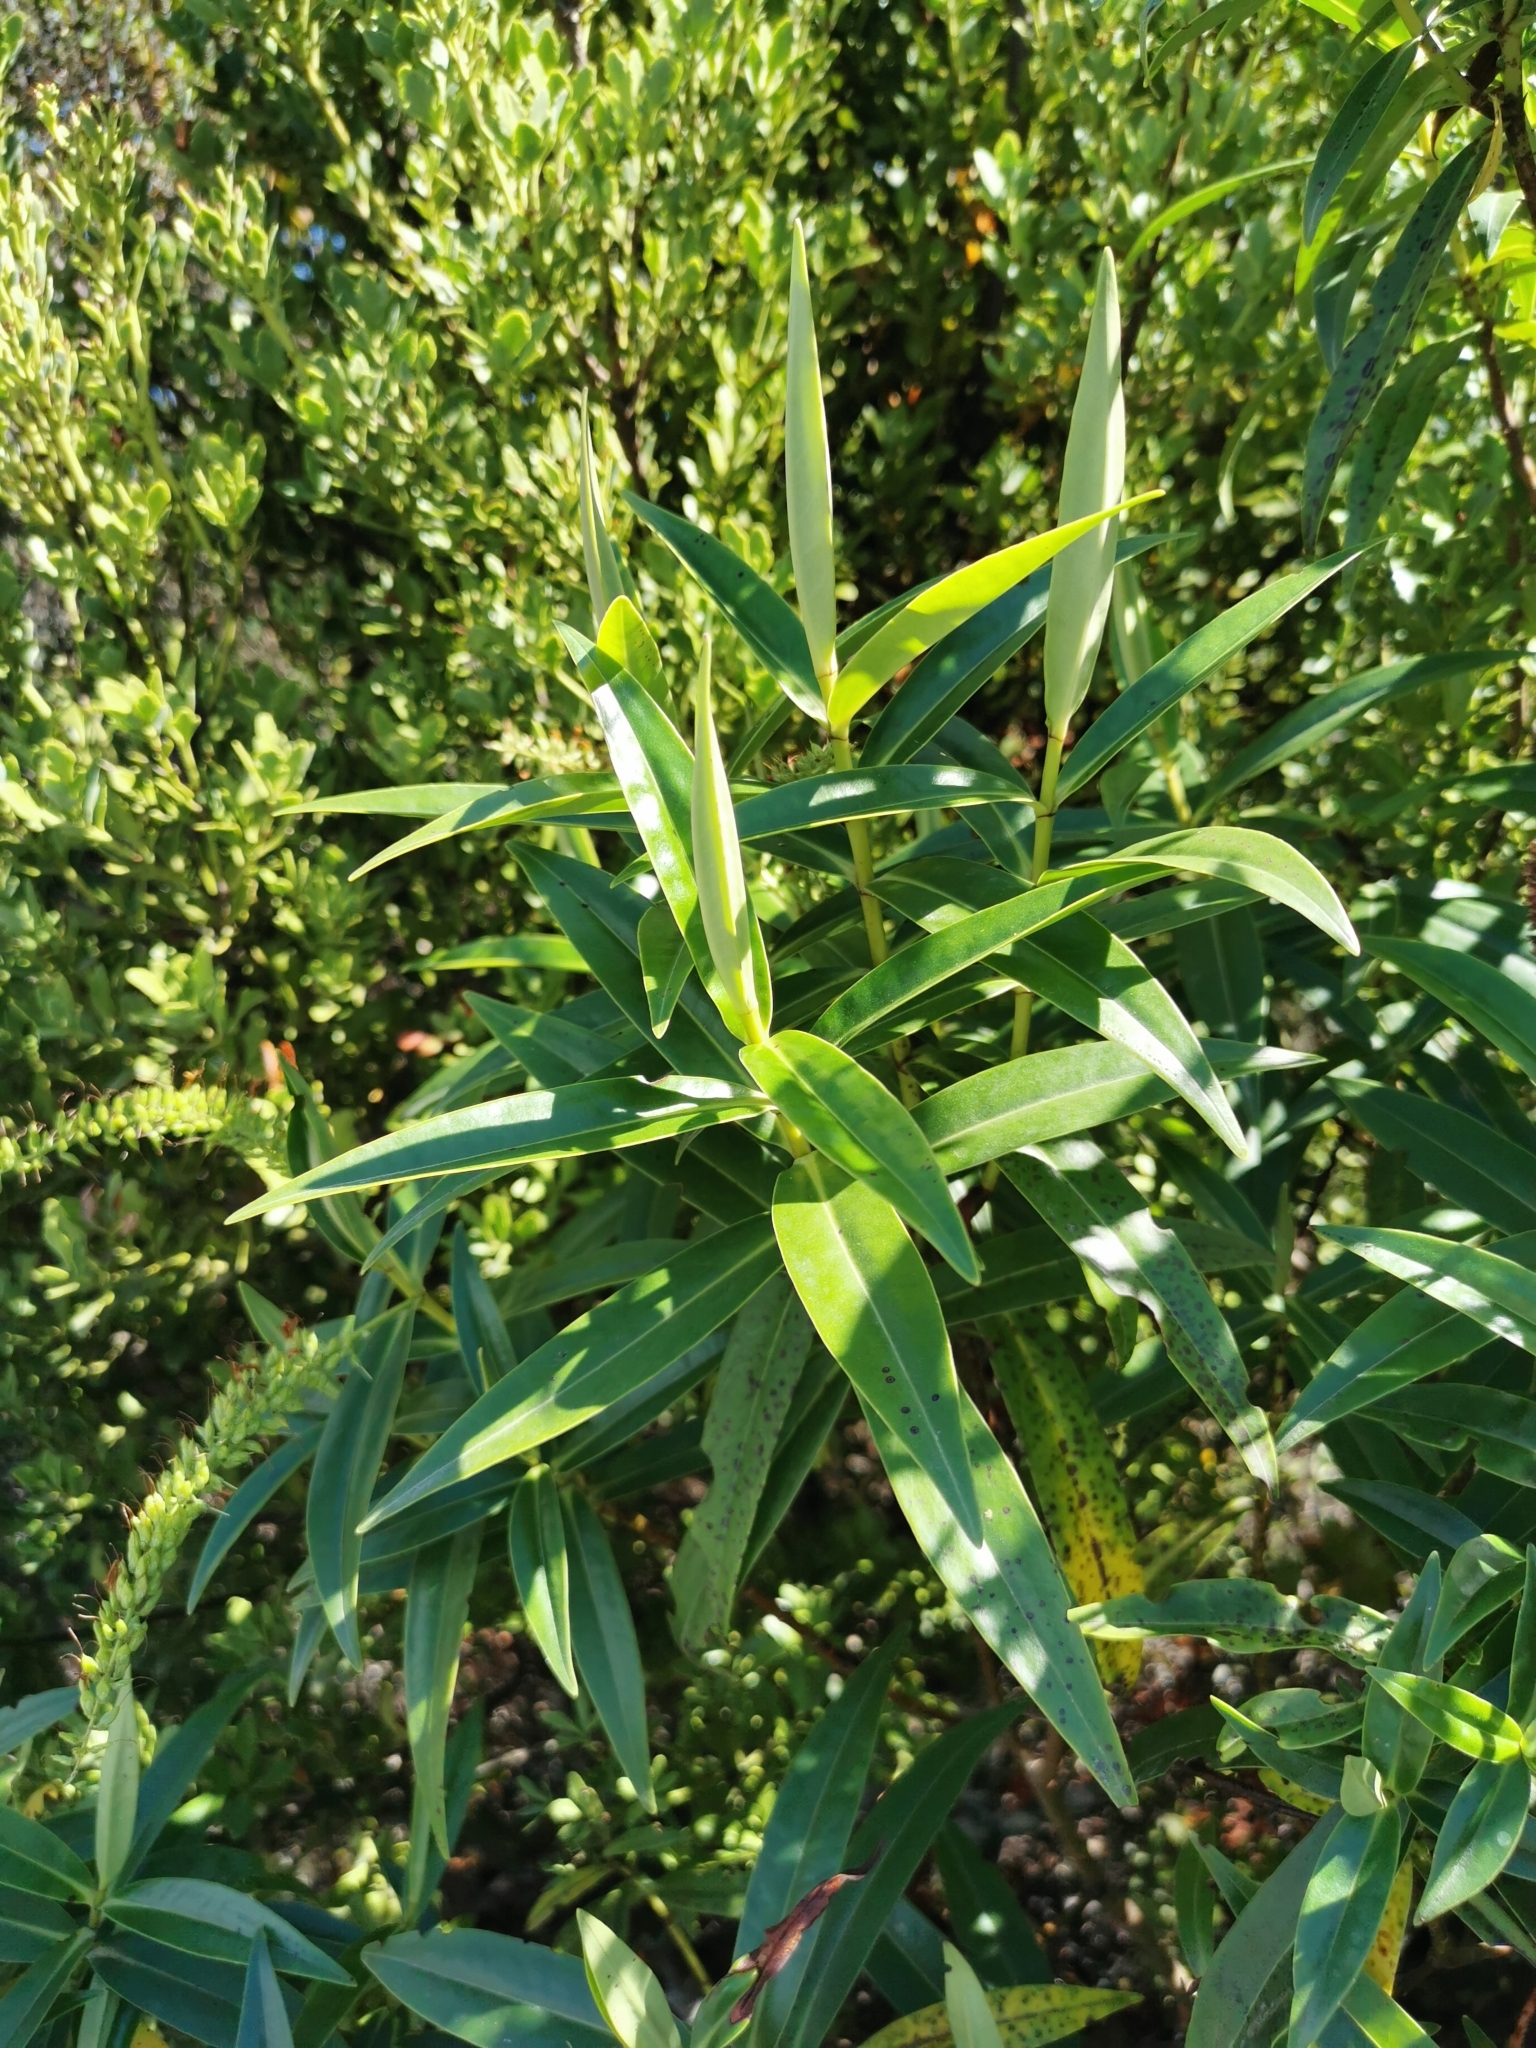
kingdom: Plantae
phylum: Tracheophyta
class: Magnoliopsida
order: Lamiales
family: Plantaginaceae
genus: Veronica
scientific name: Veronica stricta
